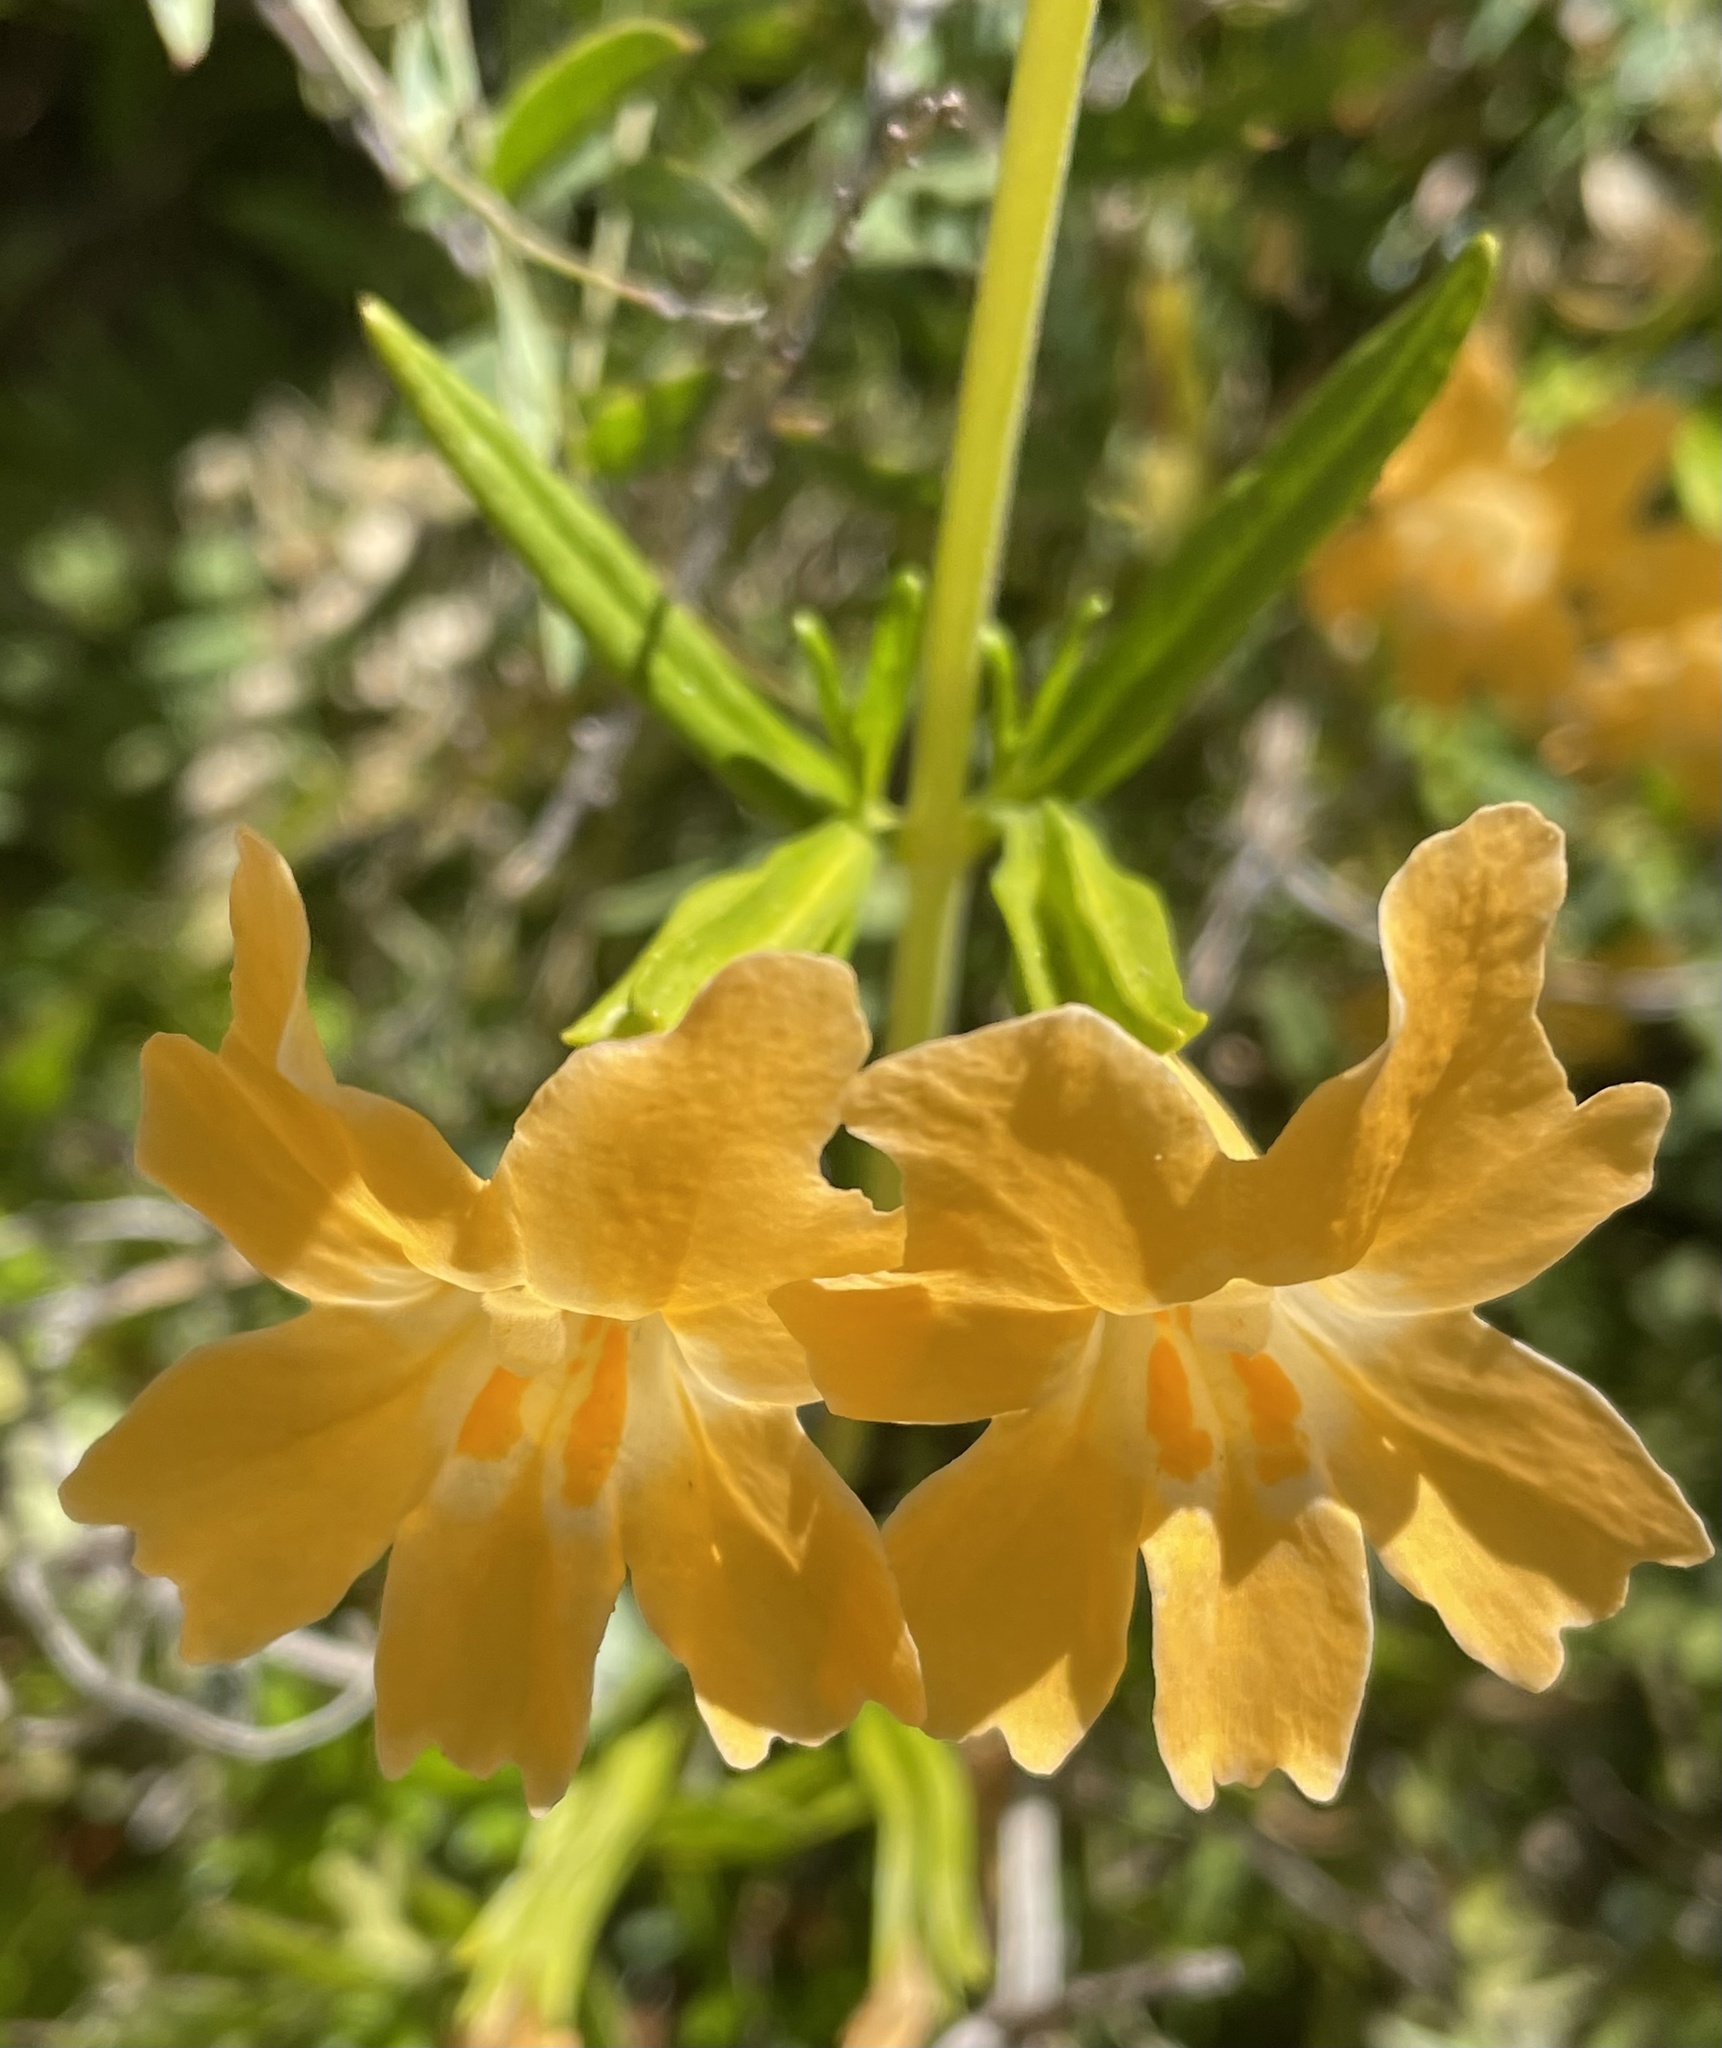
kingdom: Plantae
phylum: Tracheophyta
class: Magnoliopsida
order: Lamiales
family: Phrymaceae
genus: Diplacus
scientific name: Diplacus linearis
